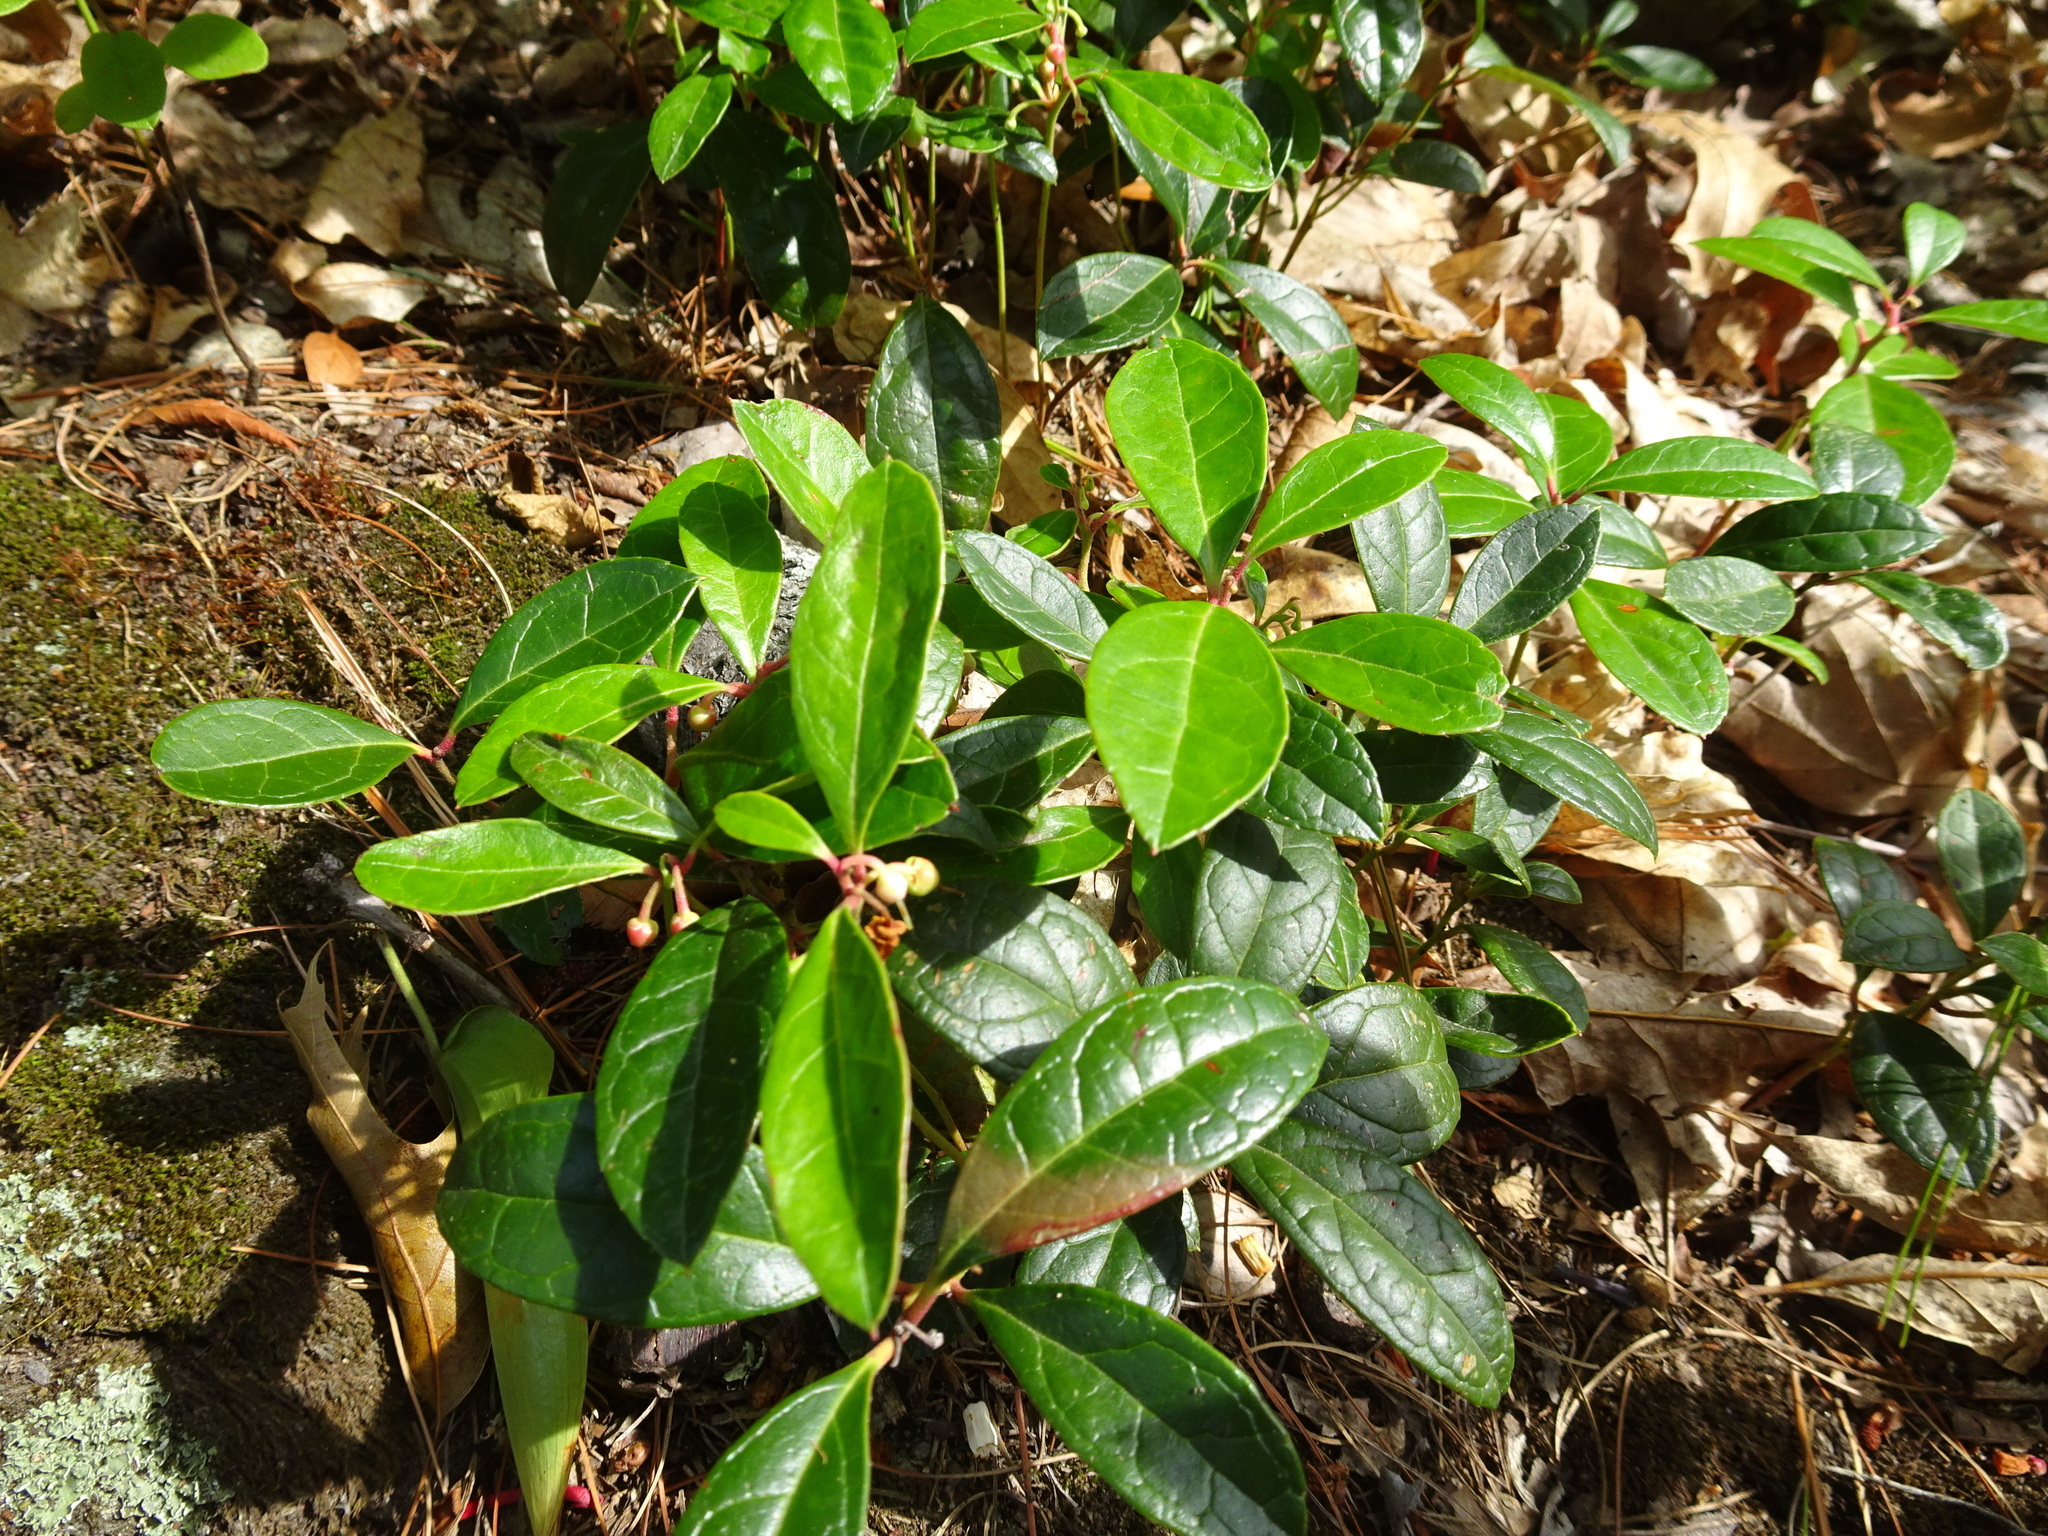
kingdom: Plantae
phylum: Tracheophyta
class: Magnoliopsida
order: Ericales
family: Ericaceae
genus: Gaultheria
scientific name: Gaultheria procumbens
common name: Checkerberry
